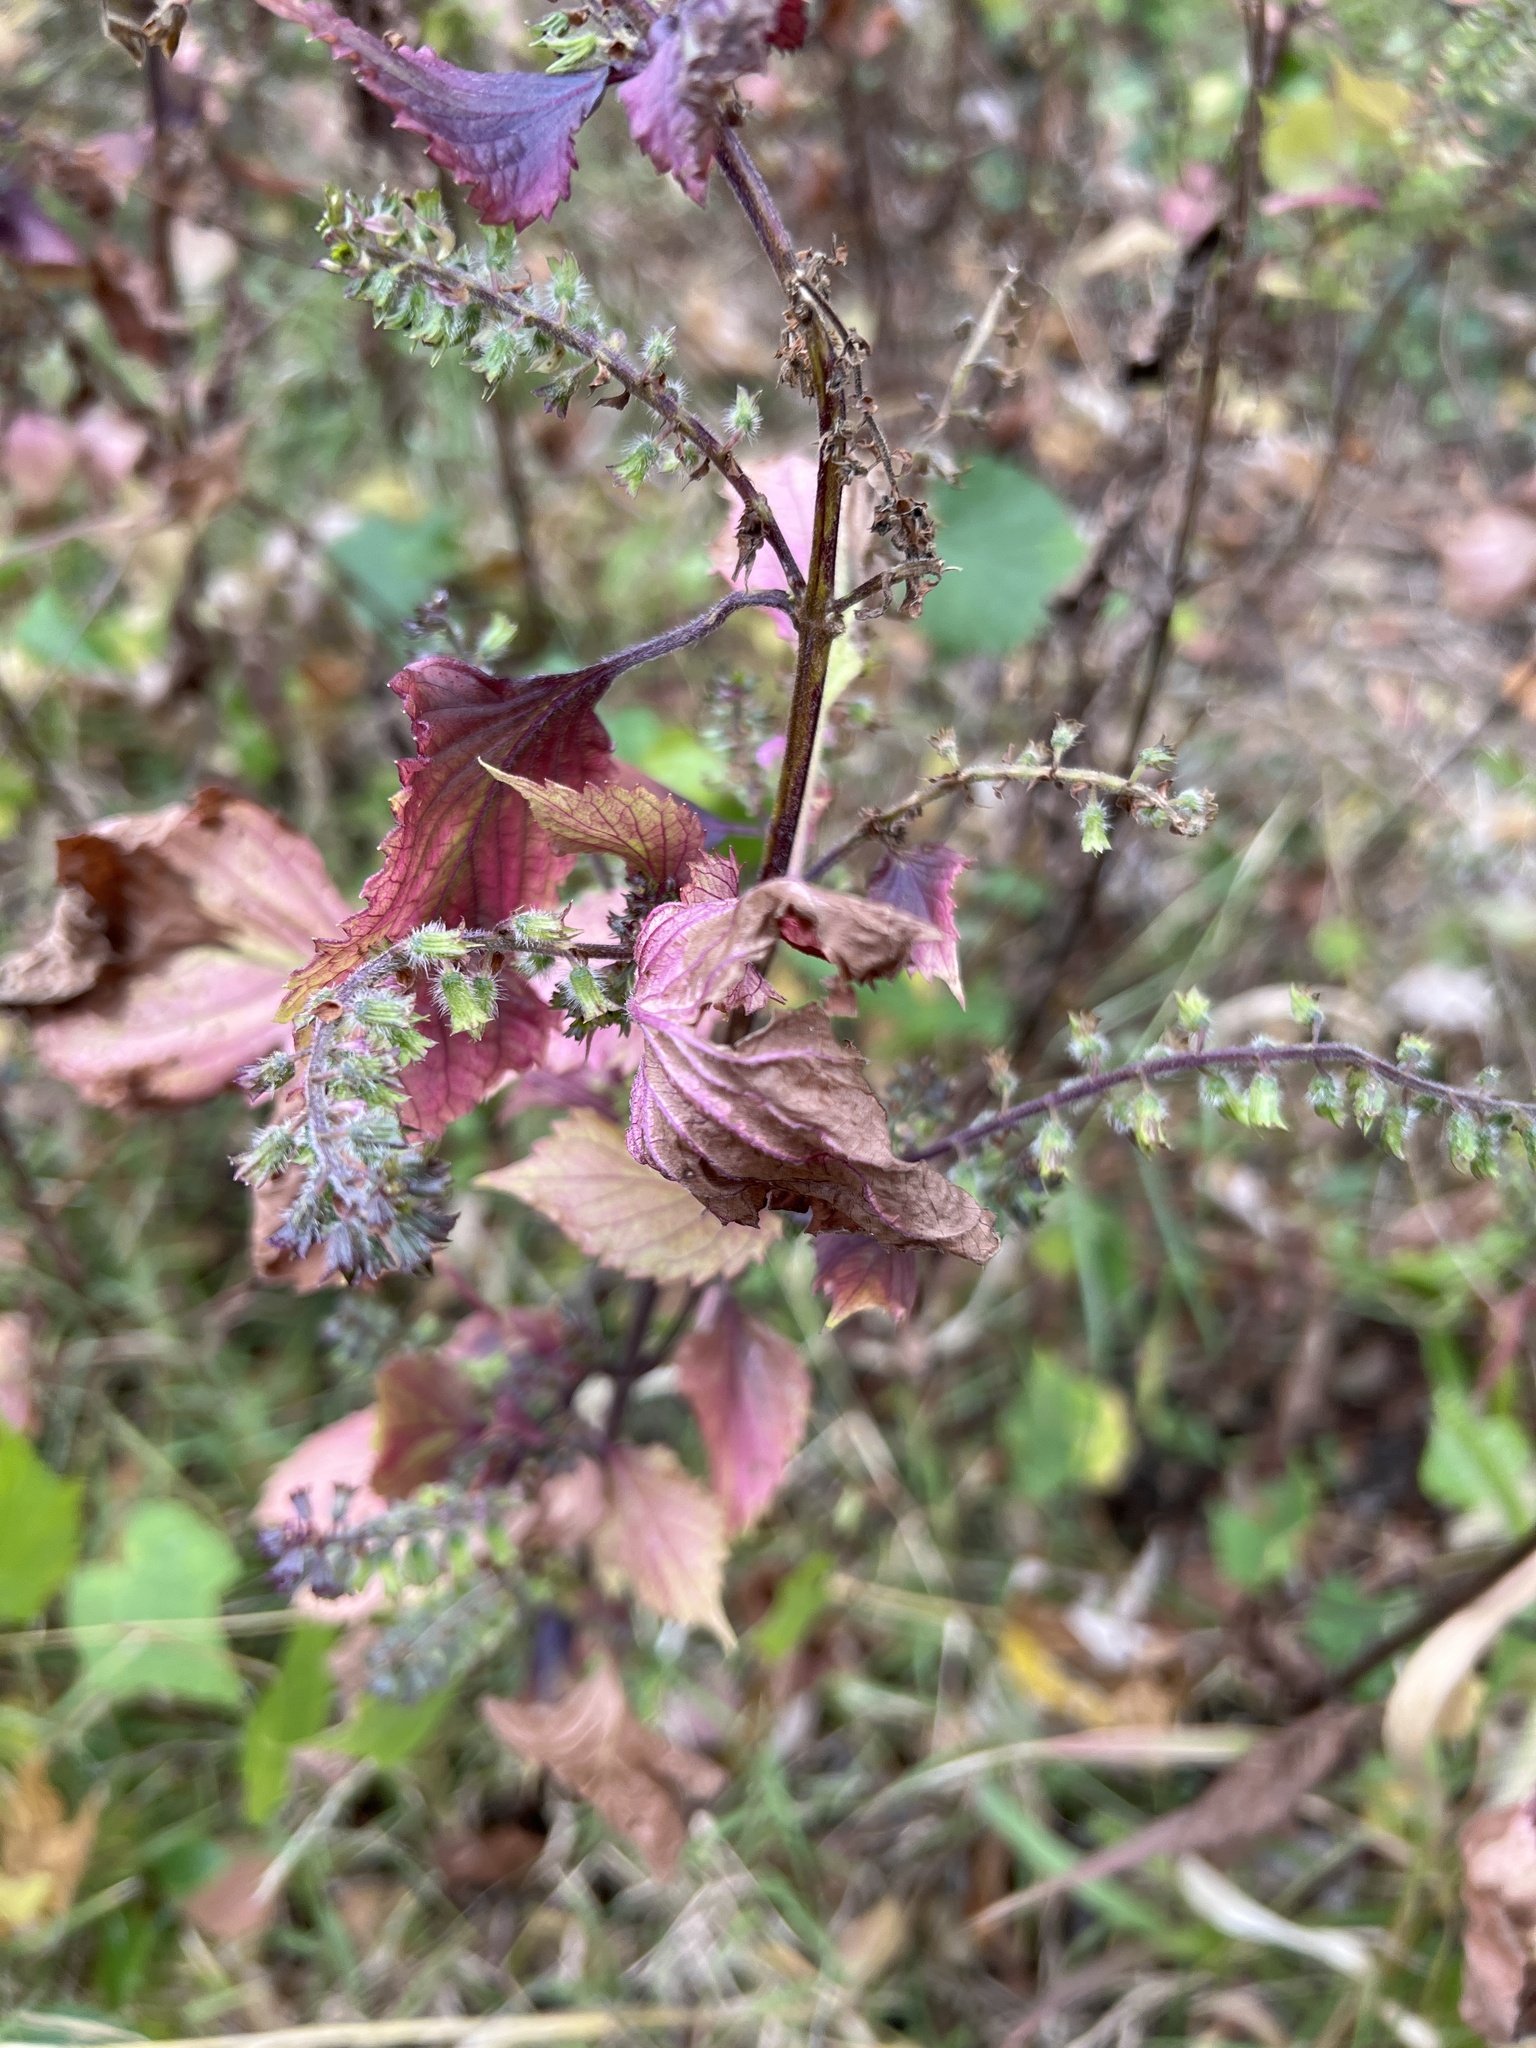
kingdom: Plantae
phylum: Tracheophyta
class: Magnoliopsida
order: Lamiales
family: Lamiaceae
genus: Perilla
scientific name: Perilla frutescens
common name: Perilla
